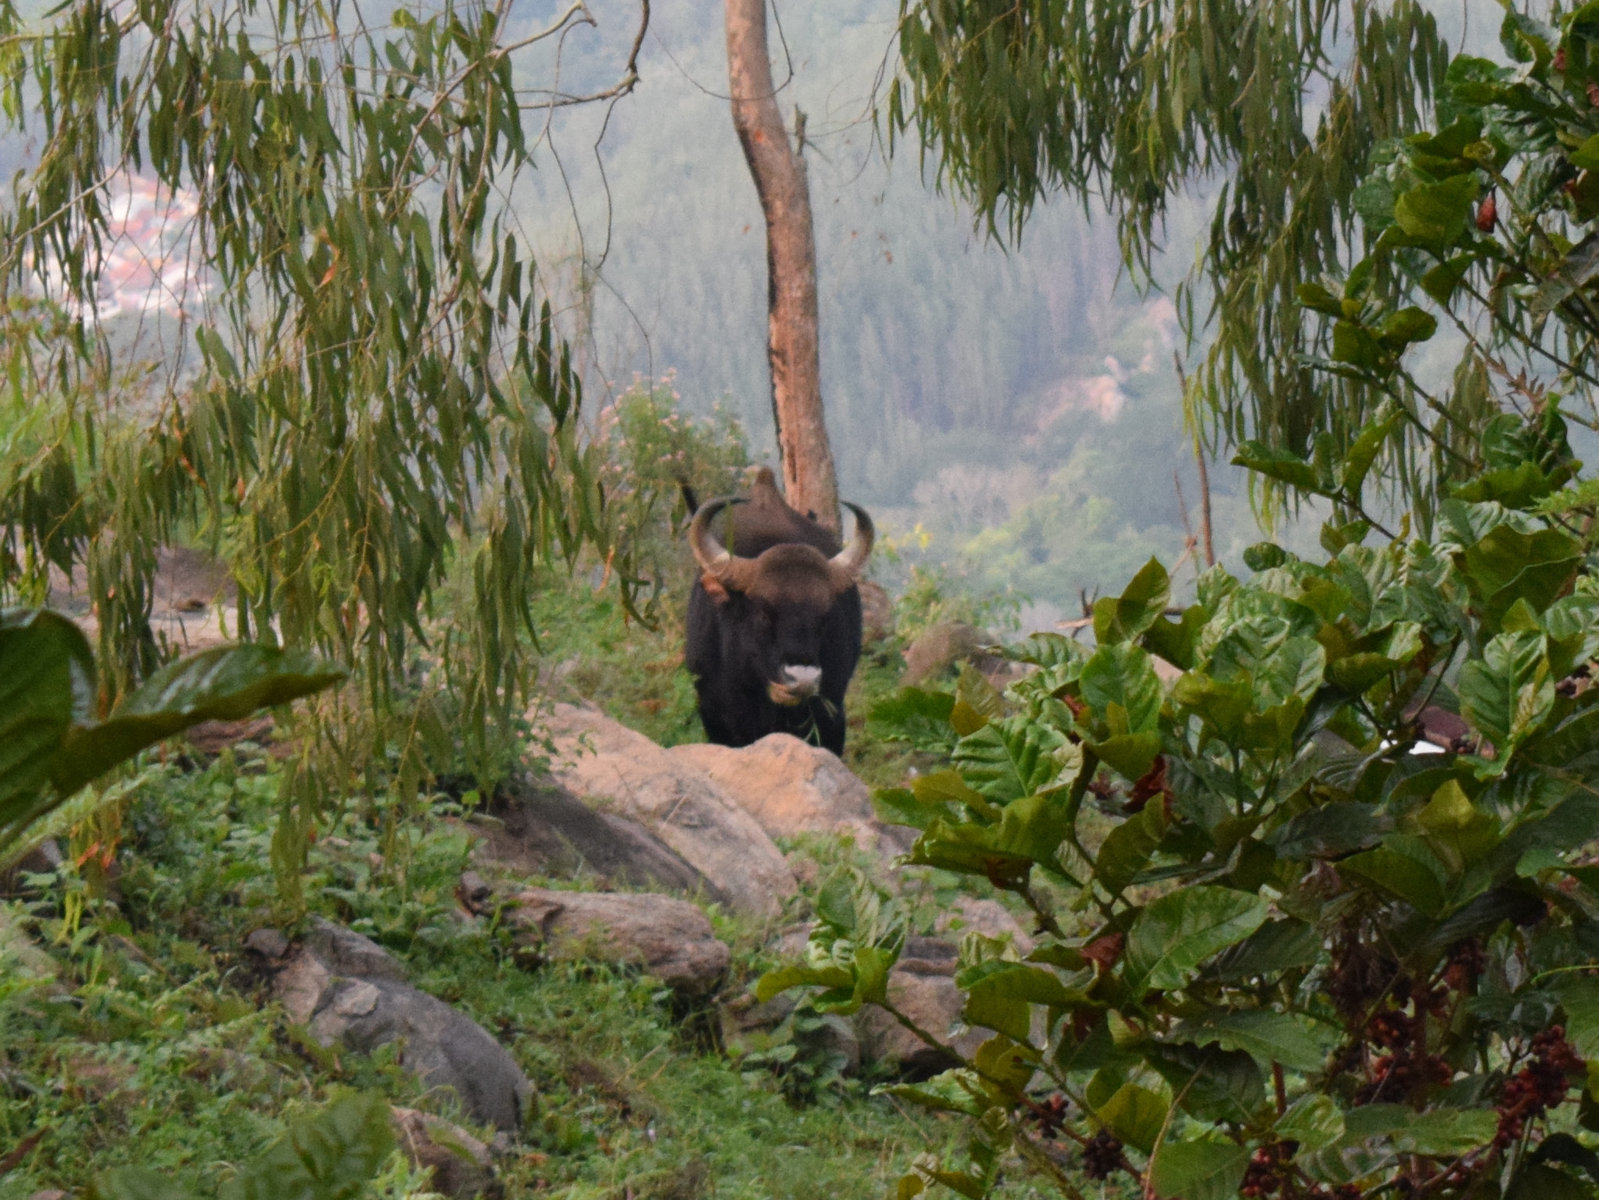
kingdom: Animalia
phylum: Chordata
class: Mammalia
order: Artiodactyla
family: Bovidae
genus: Bos
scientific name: Bos frontalis
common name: Gaur
